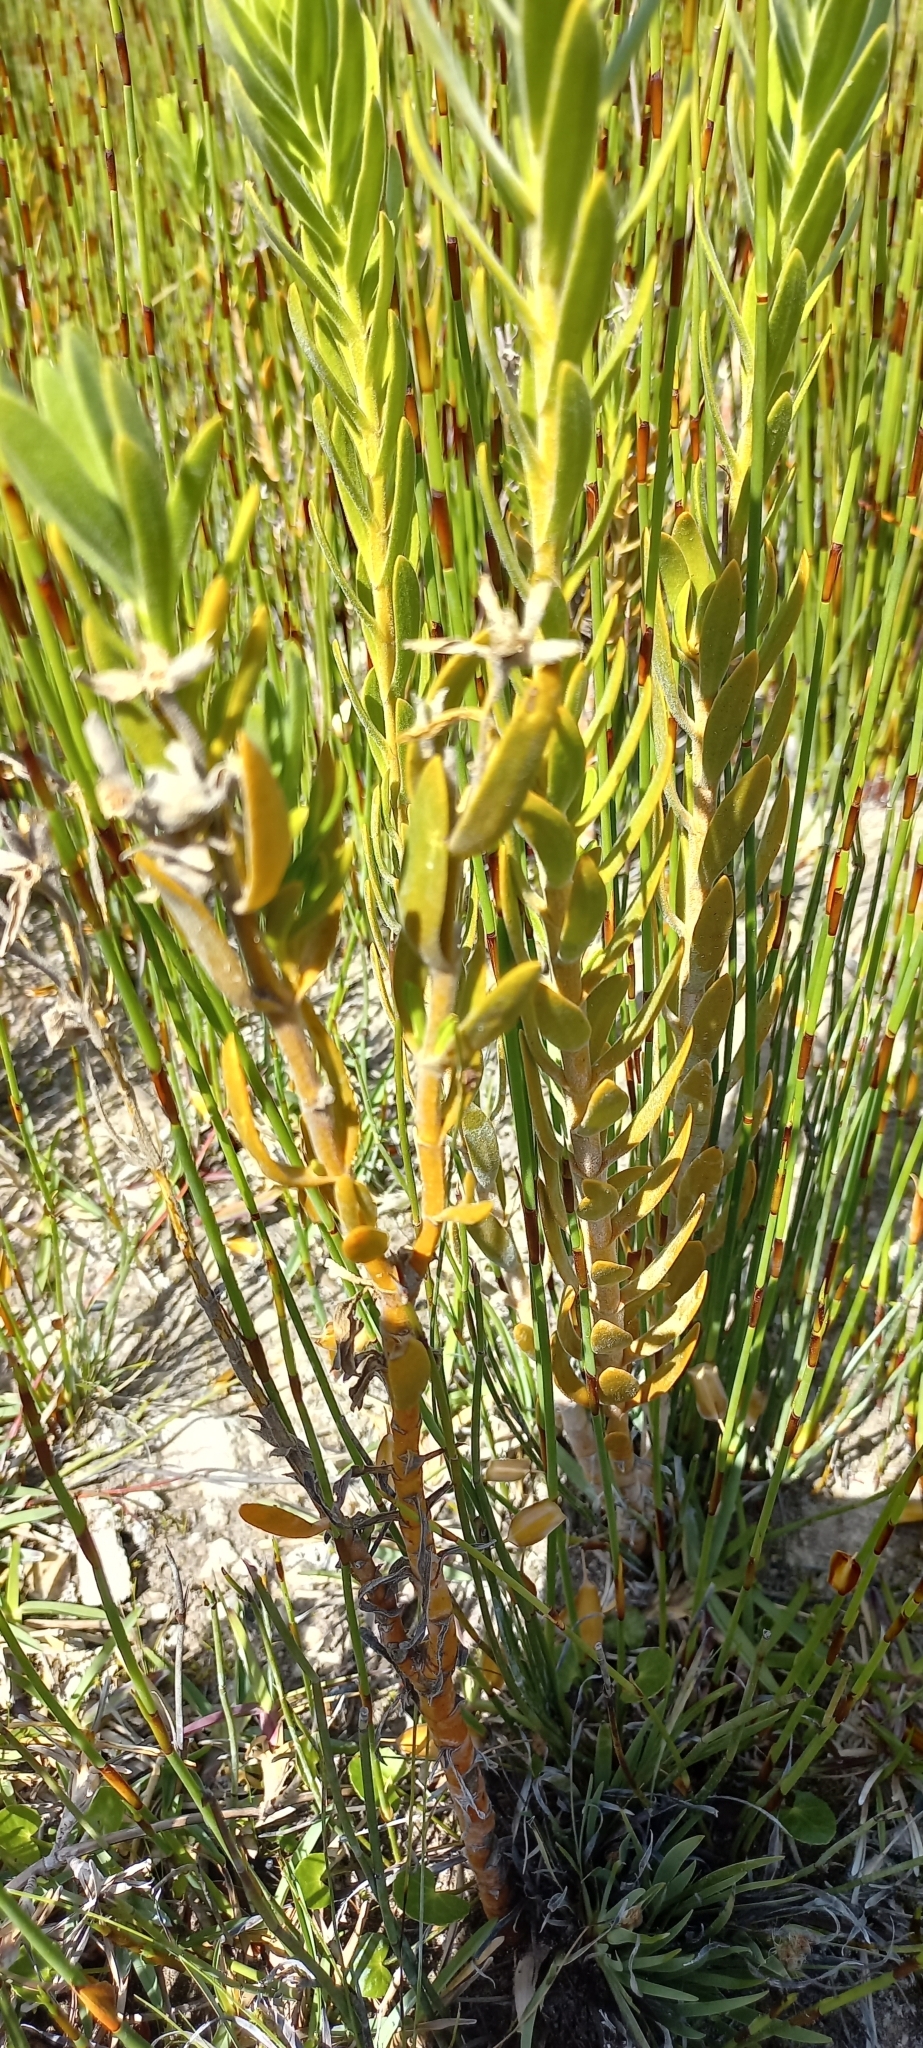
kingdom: Plantae
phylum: Tracheophyta
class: Magnoliopsida
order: Gentianales
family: Gentianaceae
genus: Orphium
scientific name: Orphium frutescens
